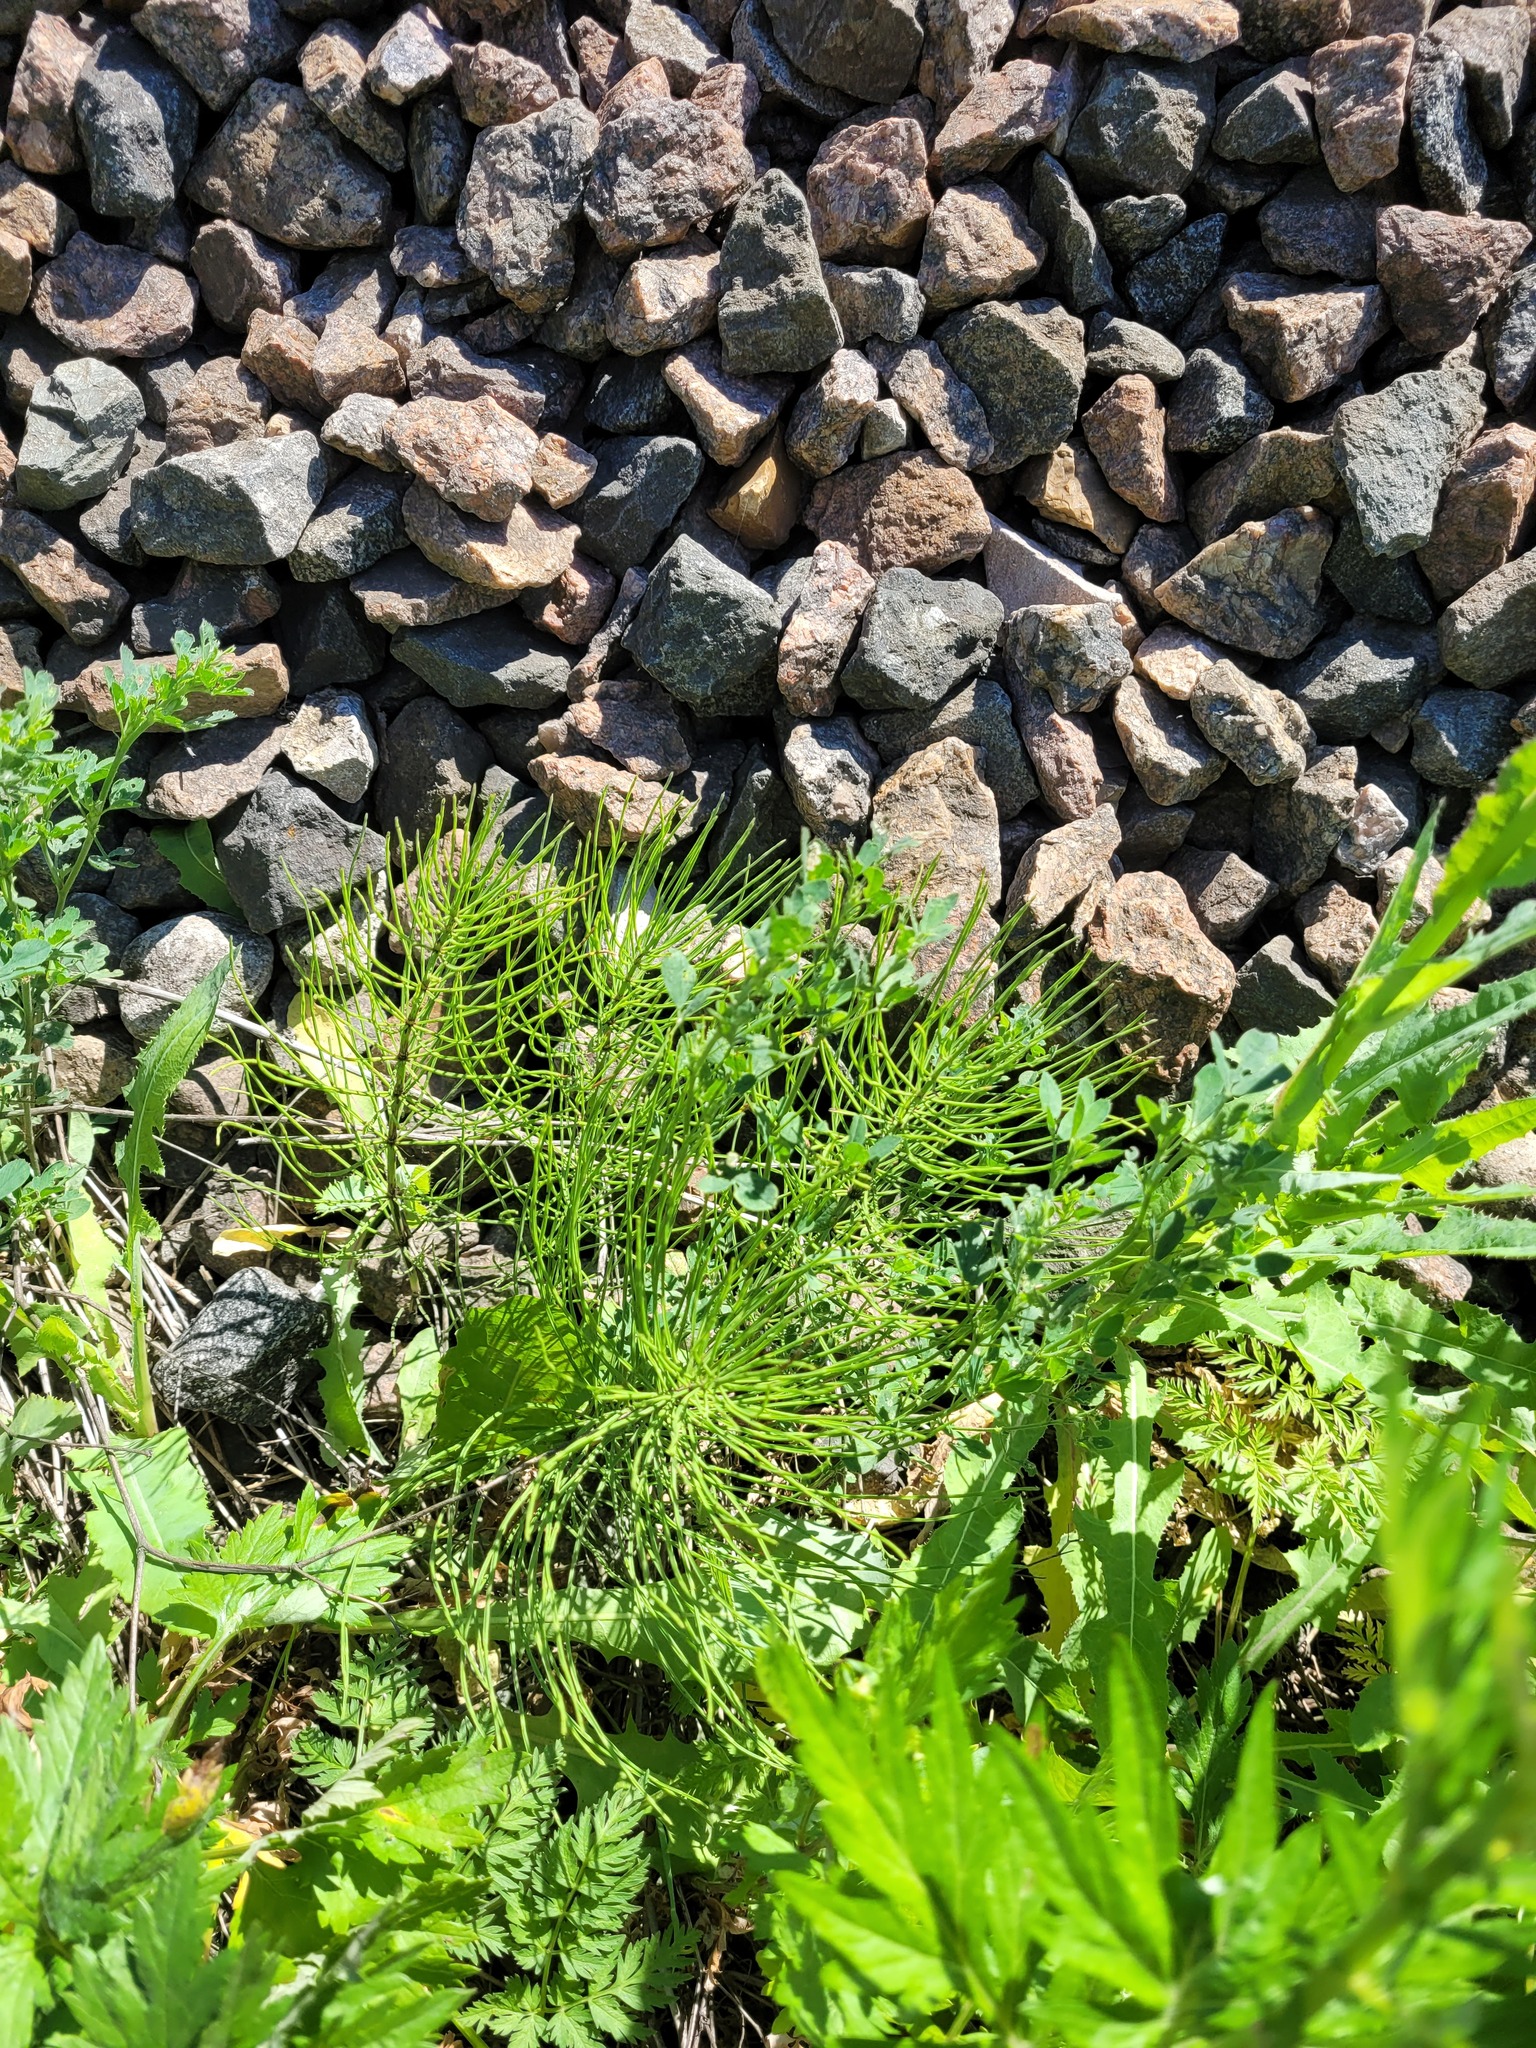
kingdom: Plantae
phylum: Tracheophyta
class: Polypodiopsida
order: Equisetales
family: Equisetaceae
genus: Equisetum
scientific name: Equisetum arvense
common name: Field horsetail
